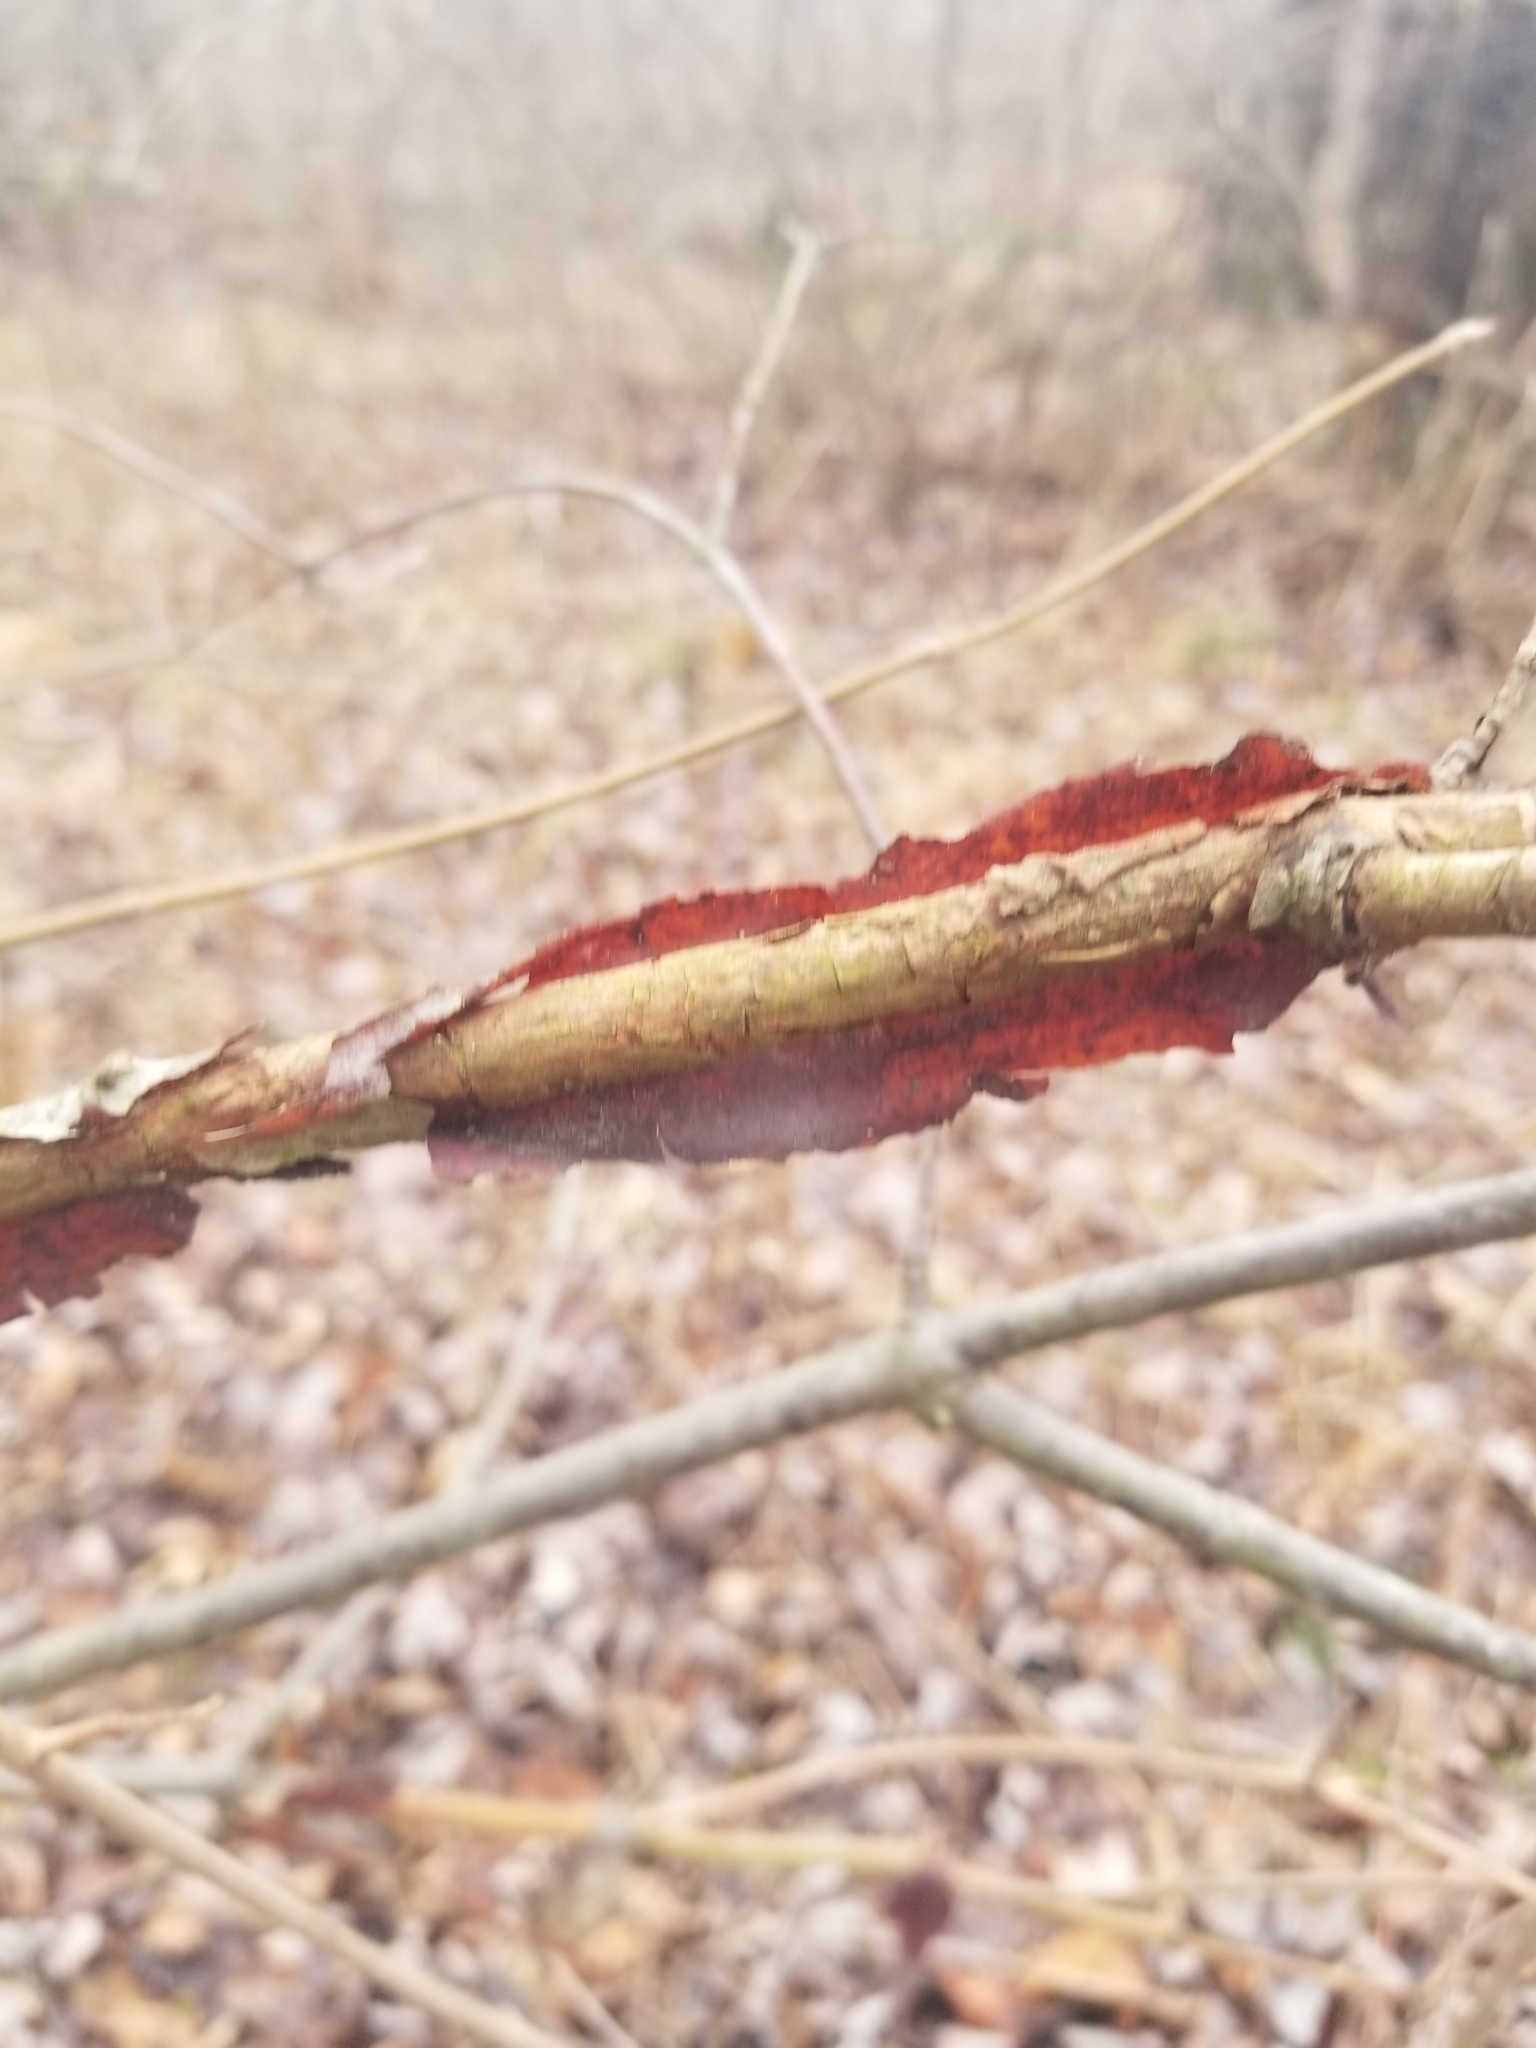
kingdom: Plantae
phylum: Tracheophyta
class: Magnoliopsida
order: Celastrales
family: Celastraceae
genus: Euonymus
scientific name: Euonymus alatus
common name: Winged euonymus
